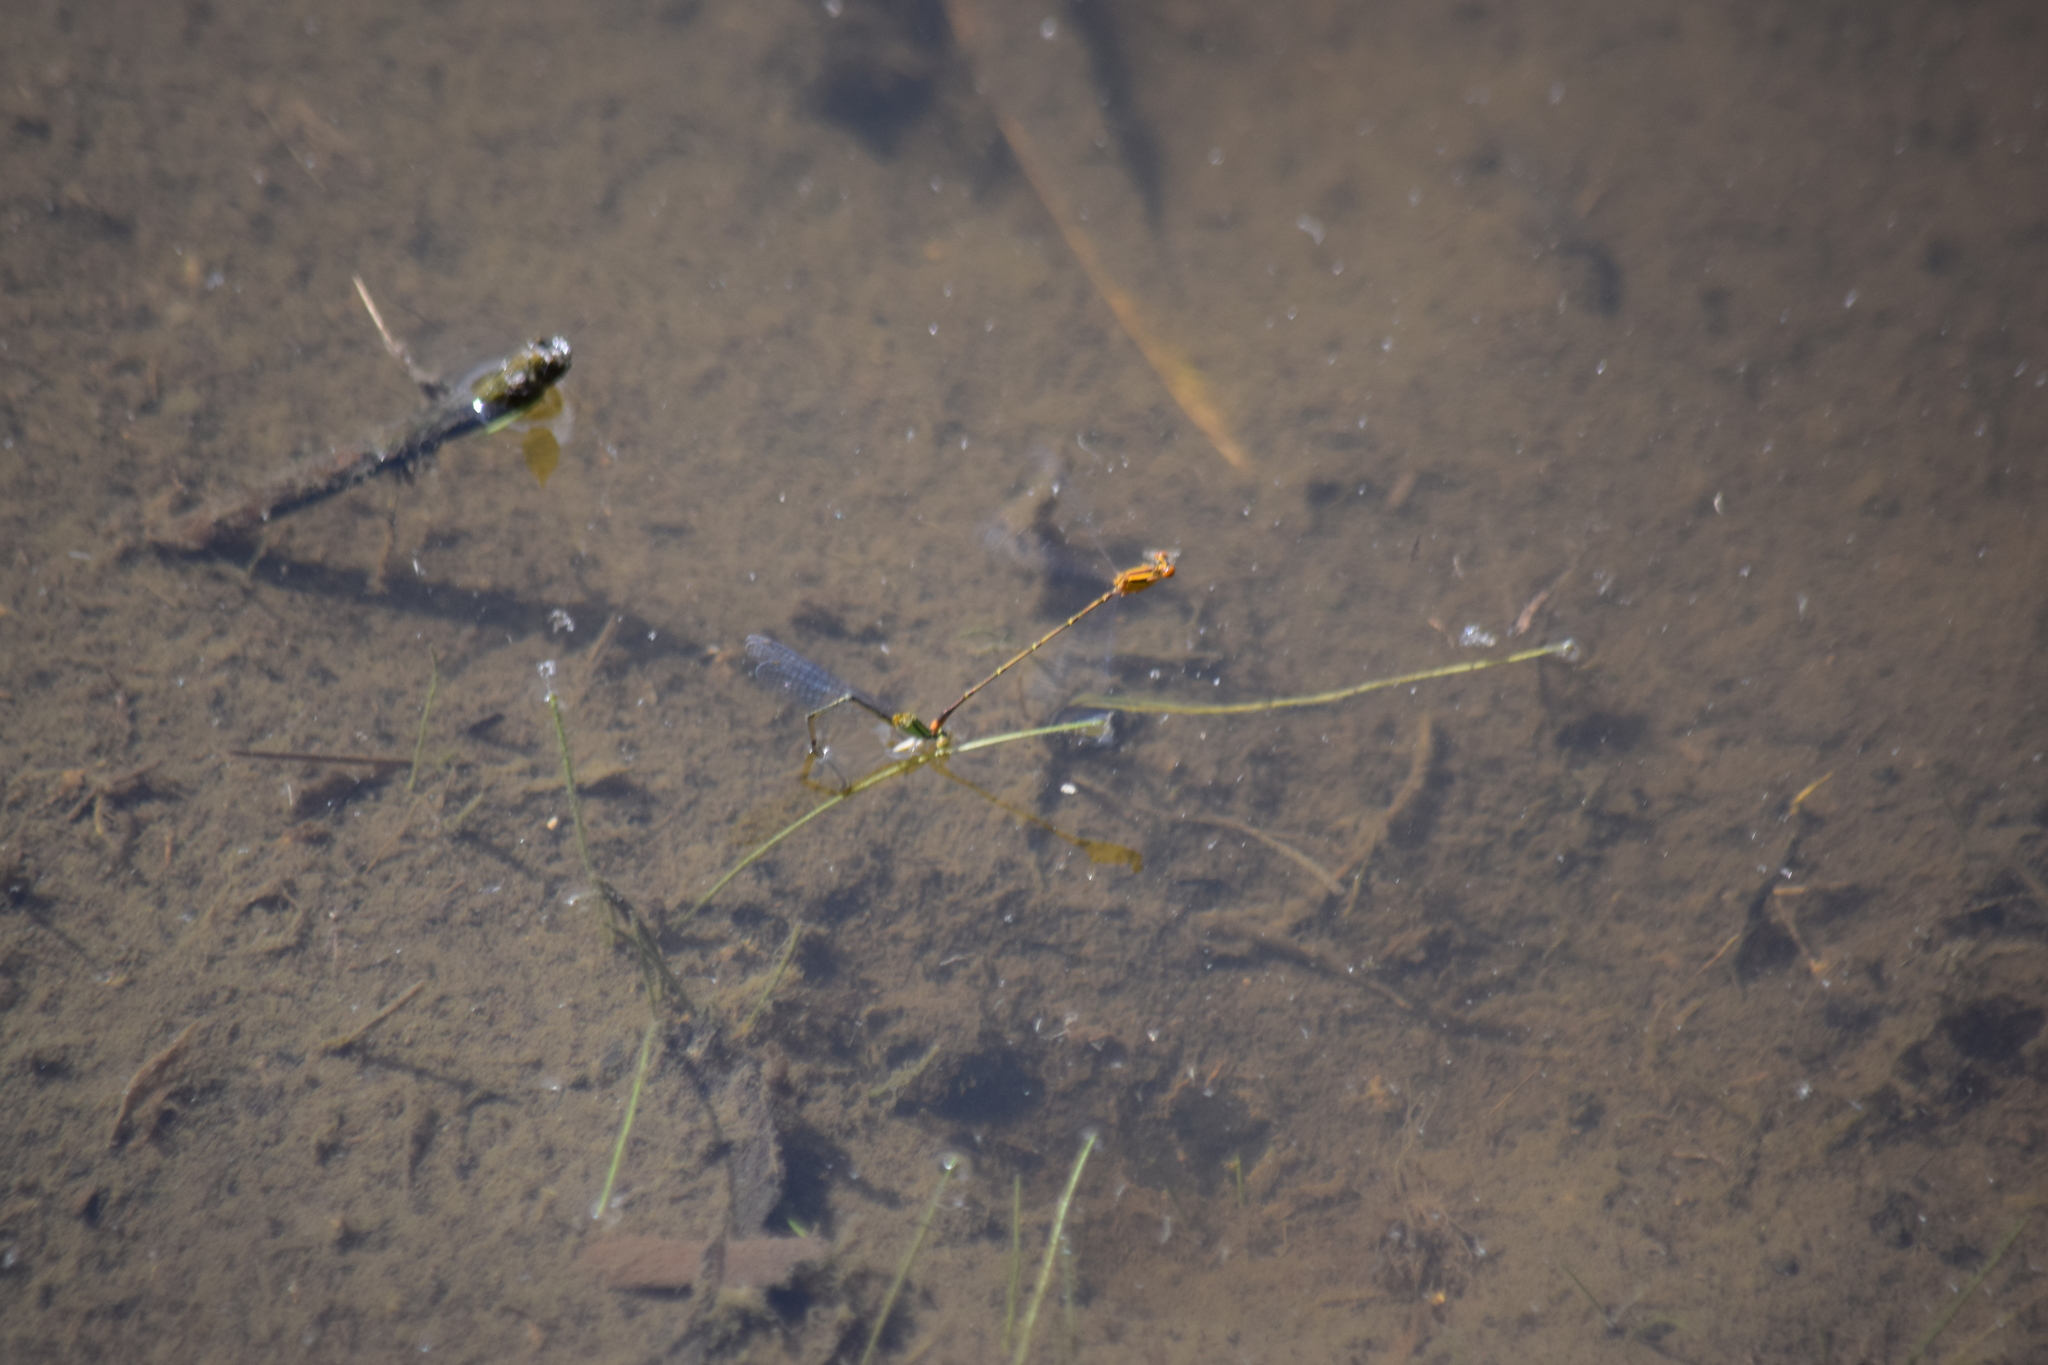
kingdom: Animalia
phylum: Arthropoda
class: Insecta
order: Odonata
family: Coenagrionidae
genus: Enallagma
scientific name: Enallagma signatum
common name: Orange bluet
